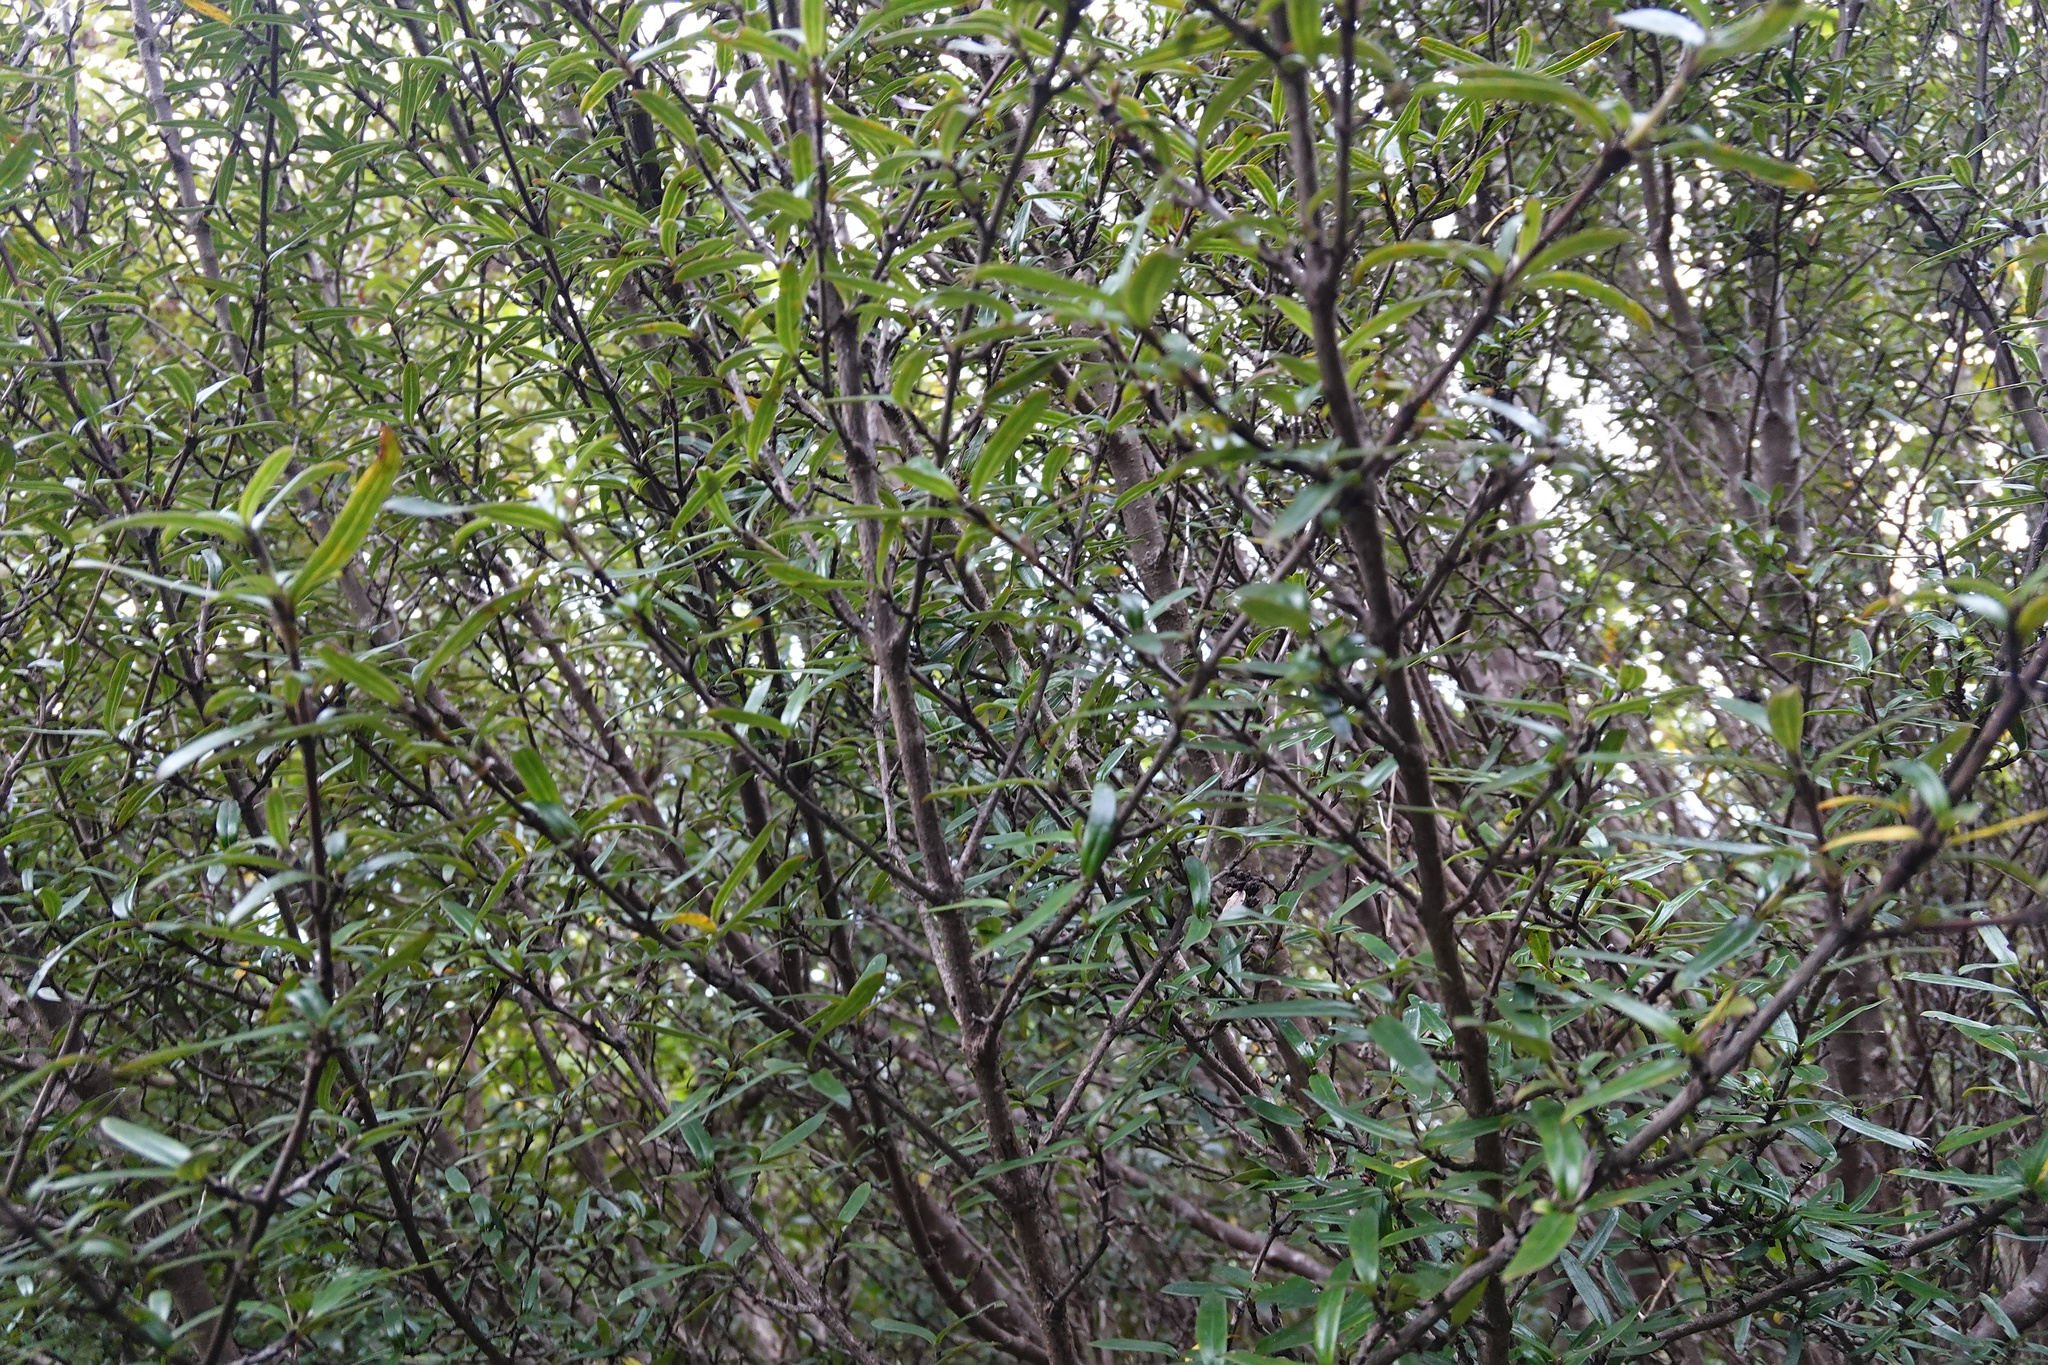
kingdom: Plantae
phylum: Tracheophyta
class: Magnoliopsida
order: Gentianales
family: Rubiaceae
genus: Coprosma
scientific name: Coprosma linariifolia
